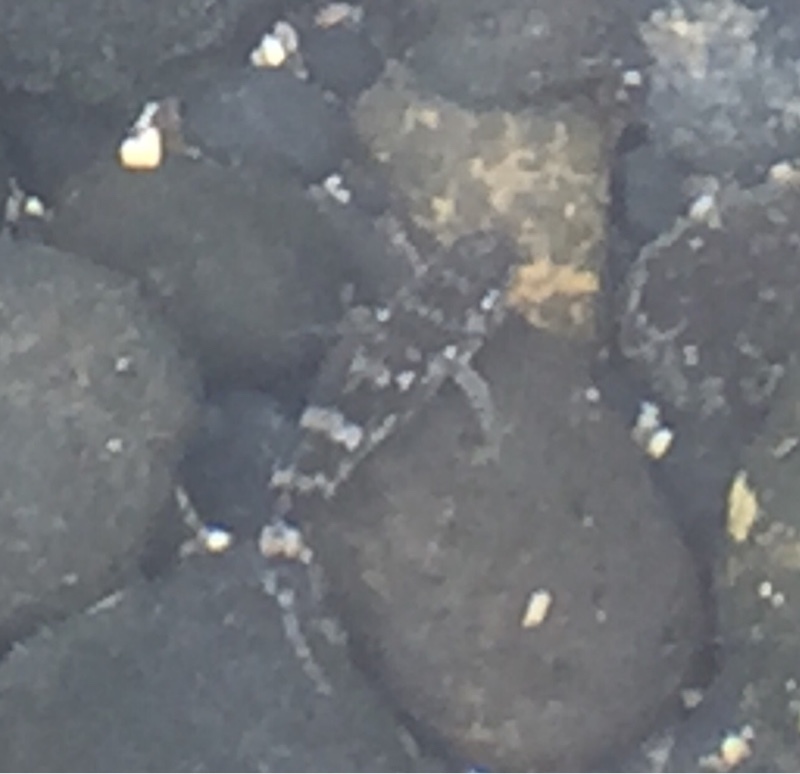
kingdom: Animalia
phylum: Chordata
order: Perciformes
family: Gobiidae
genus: Mauligobius
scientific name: Mauligobius maderensis
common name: Rock goby
